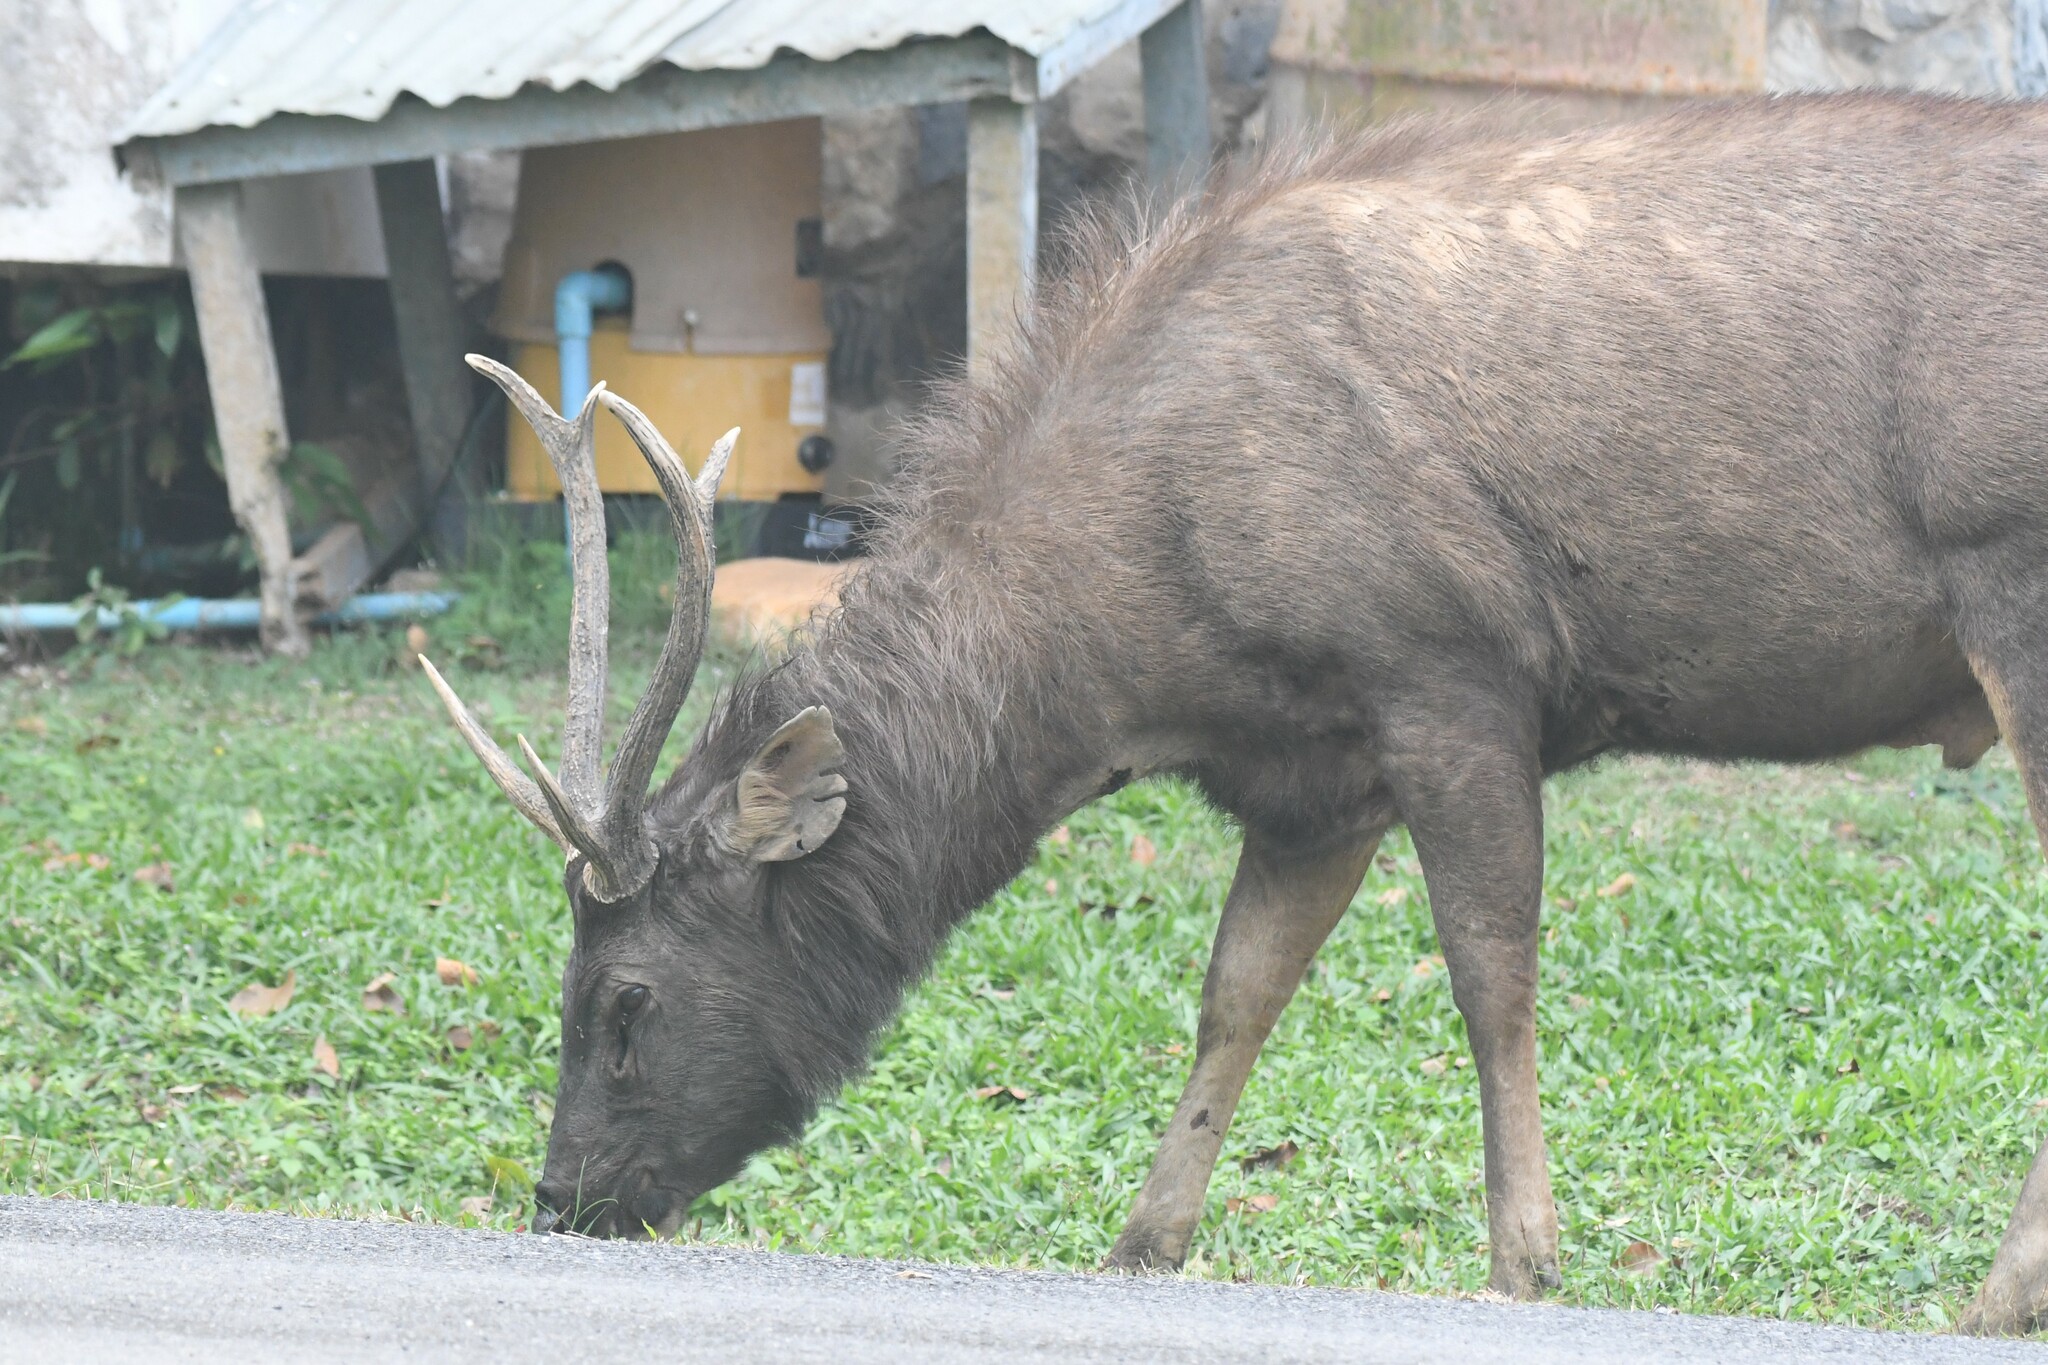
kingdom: Animalia
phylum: Chordata
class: Mammalia
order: Artiodactyla
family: Cervidae
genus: Rusa
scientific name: Rusa unicolor
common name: Sambar
